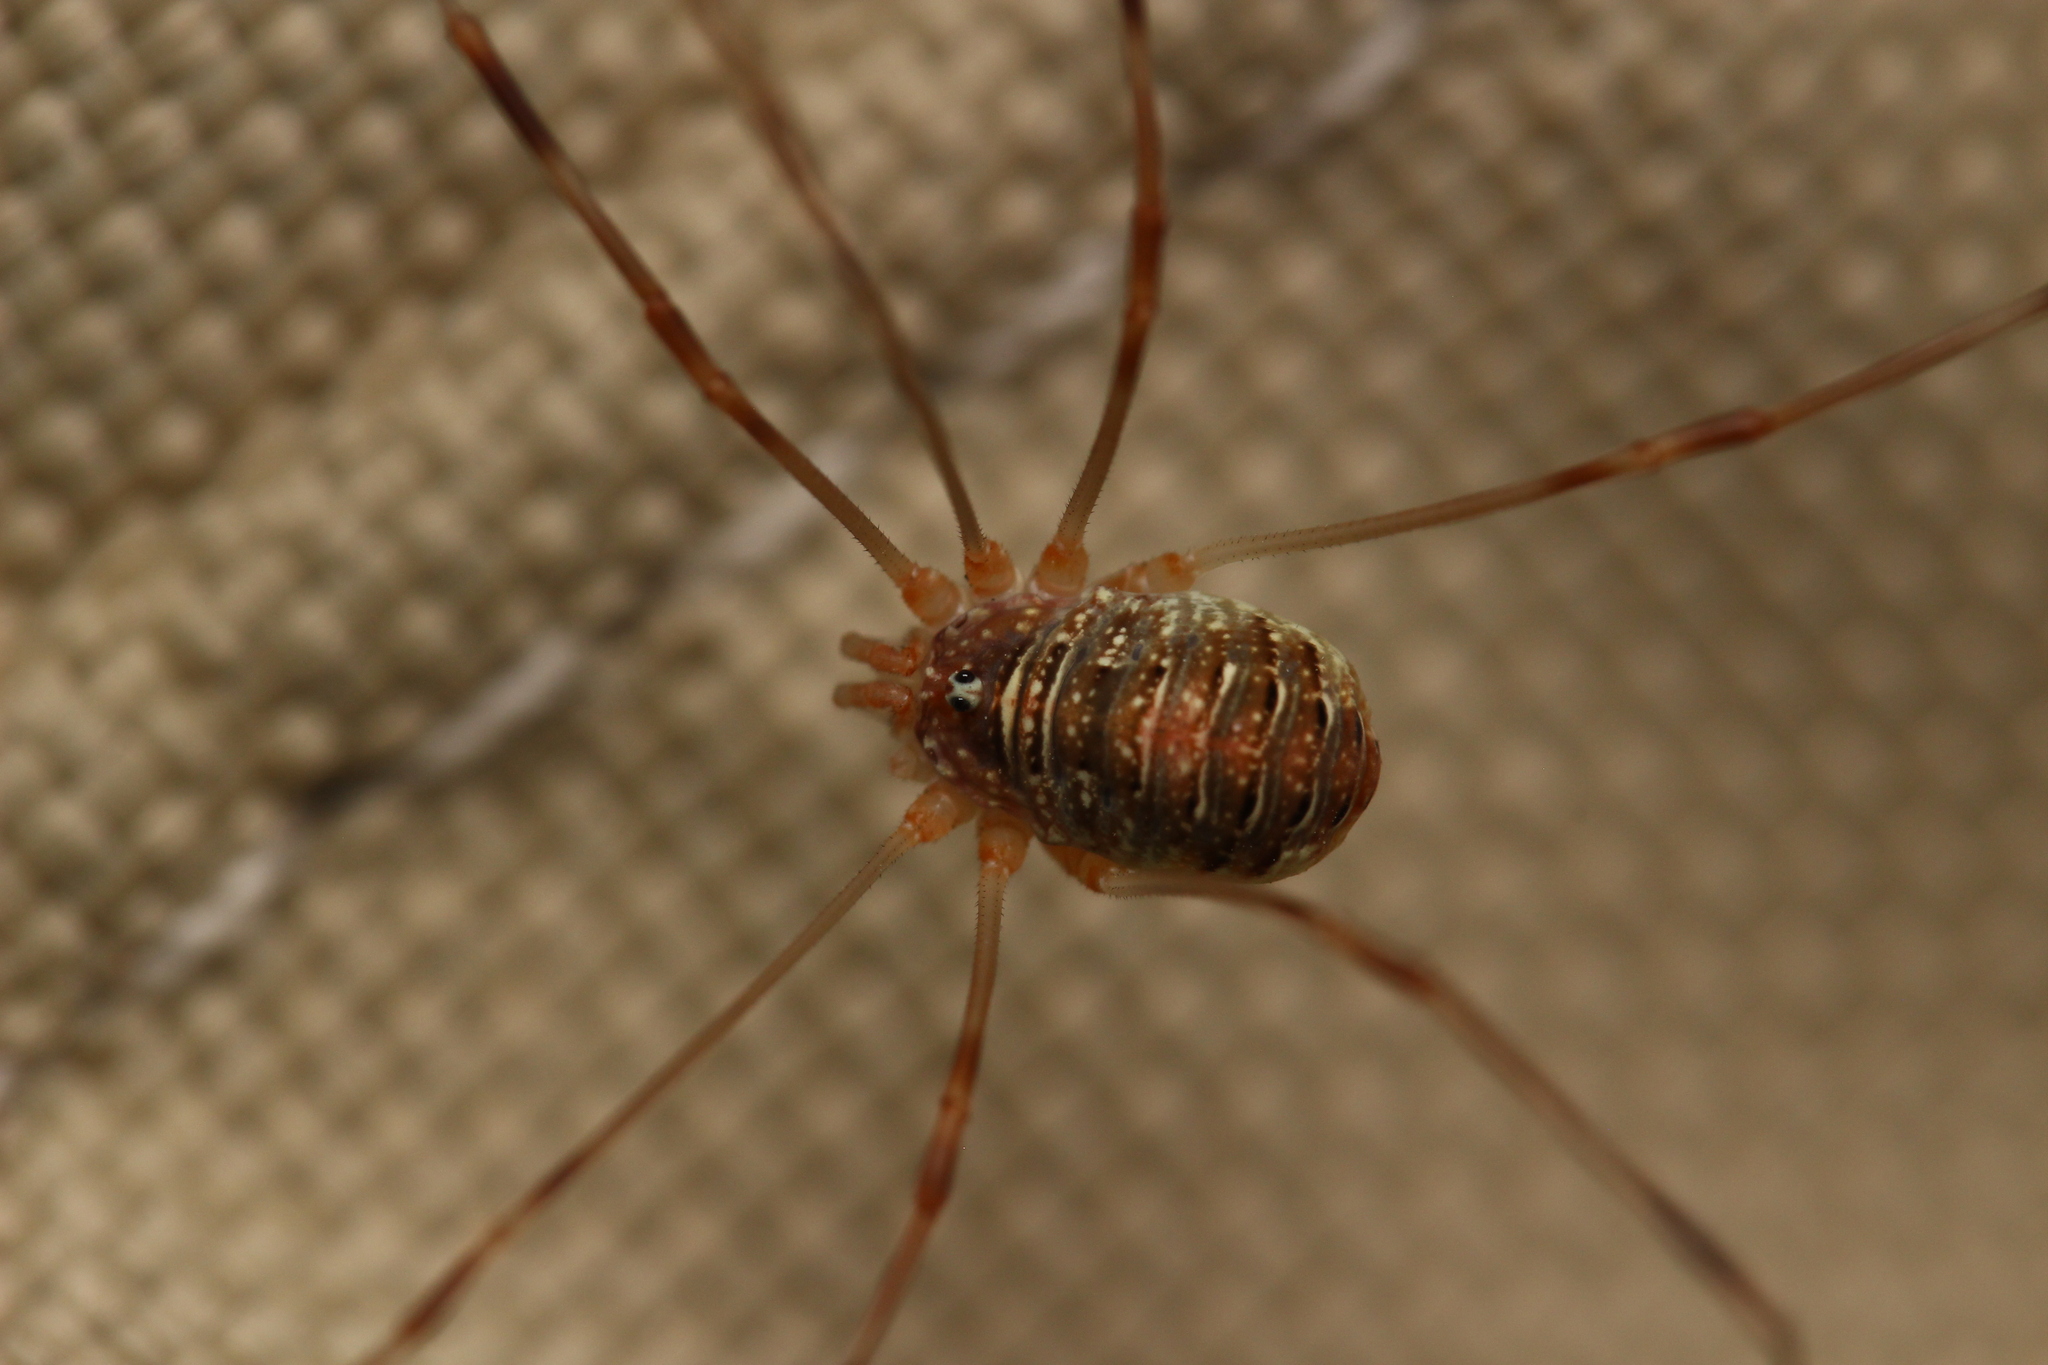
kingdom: Animalia
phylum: Arthropoda
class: Arachnida
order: Opiliones
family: Phalangiidae
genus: Opilio
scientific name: Opilio canestrinii
